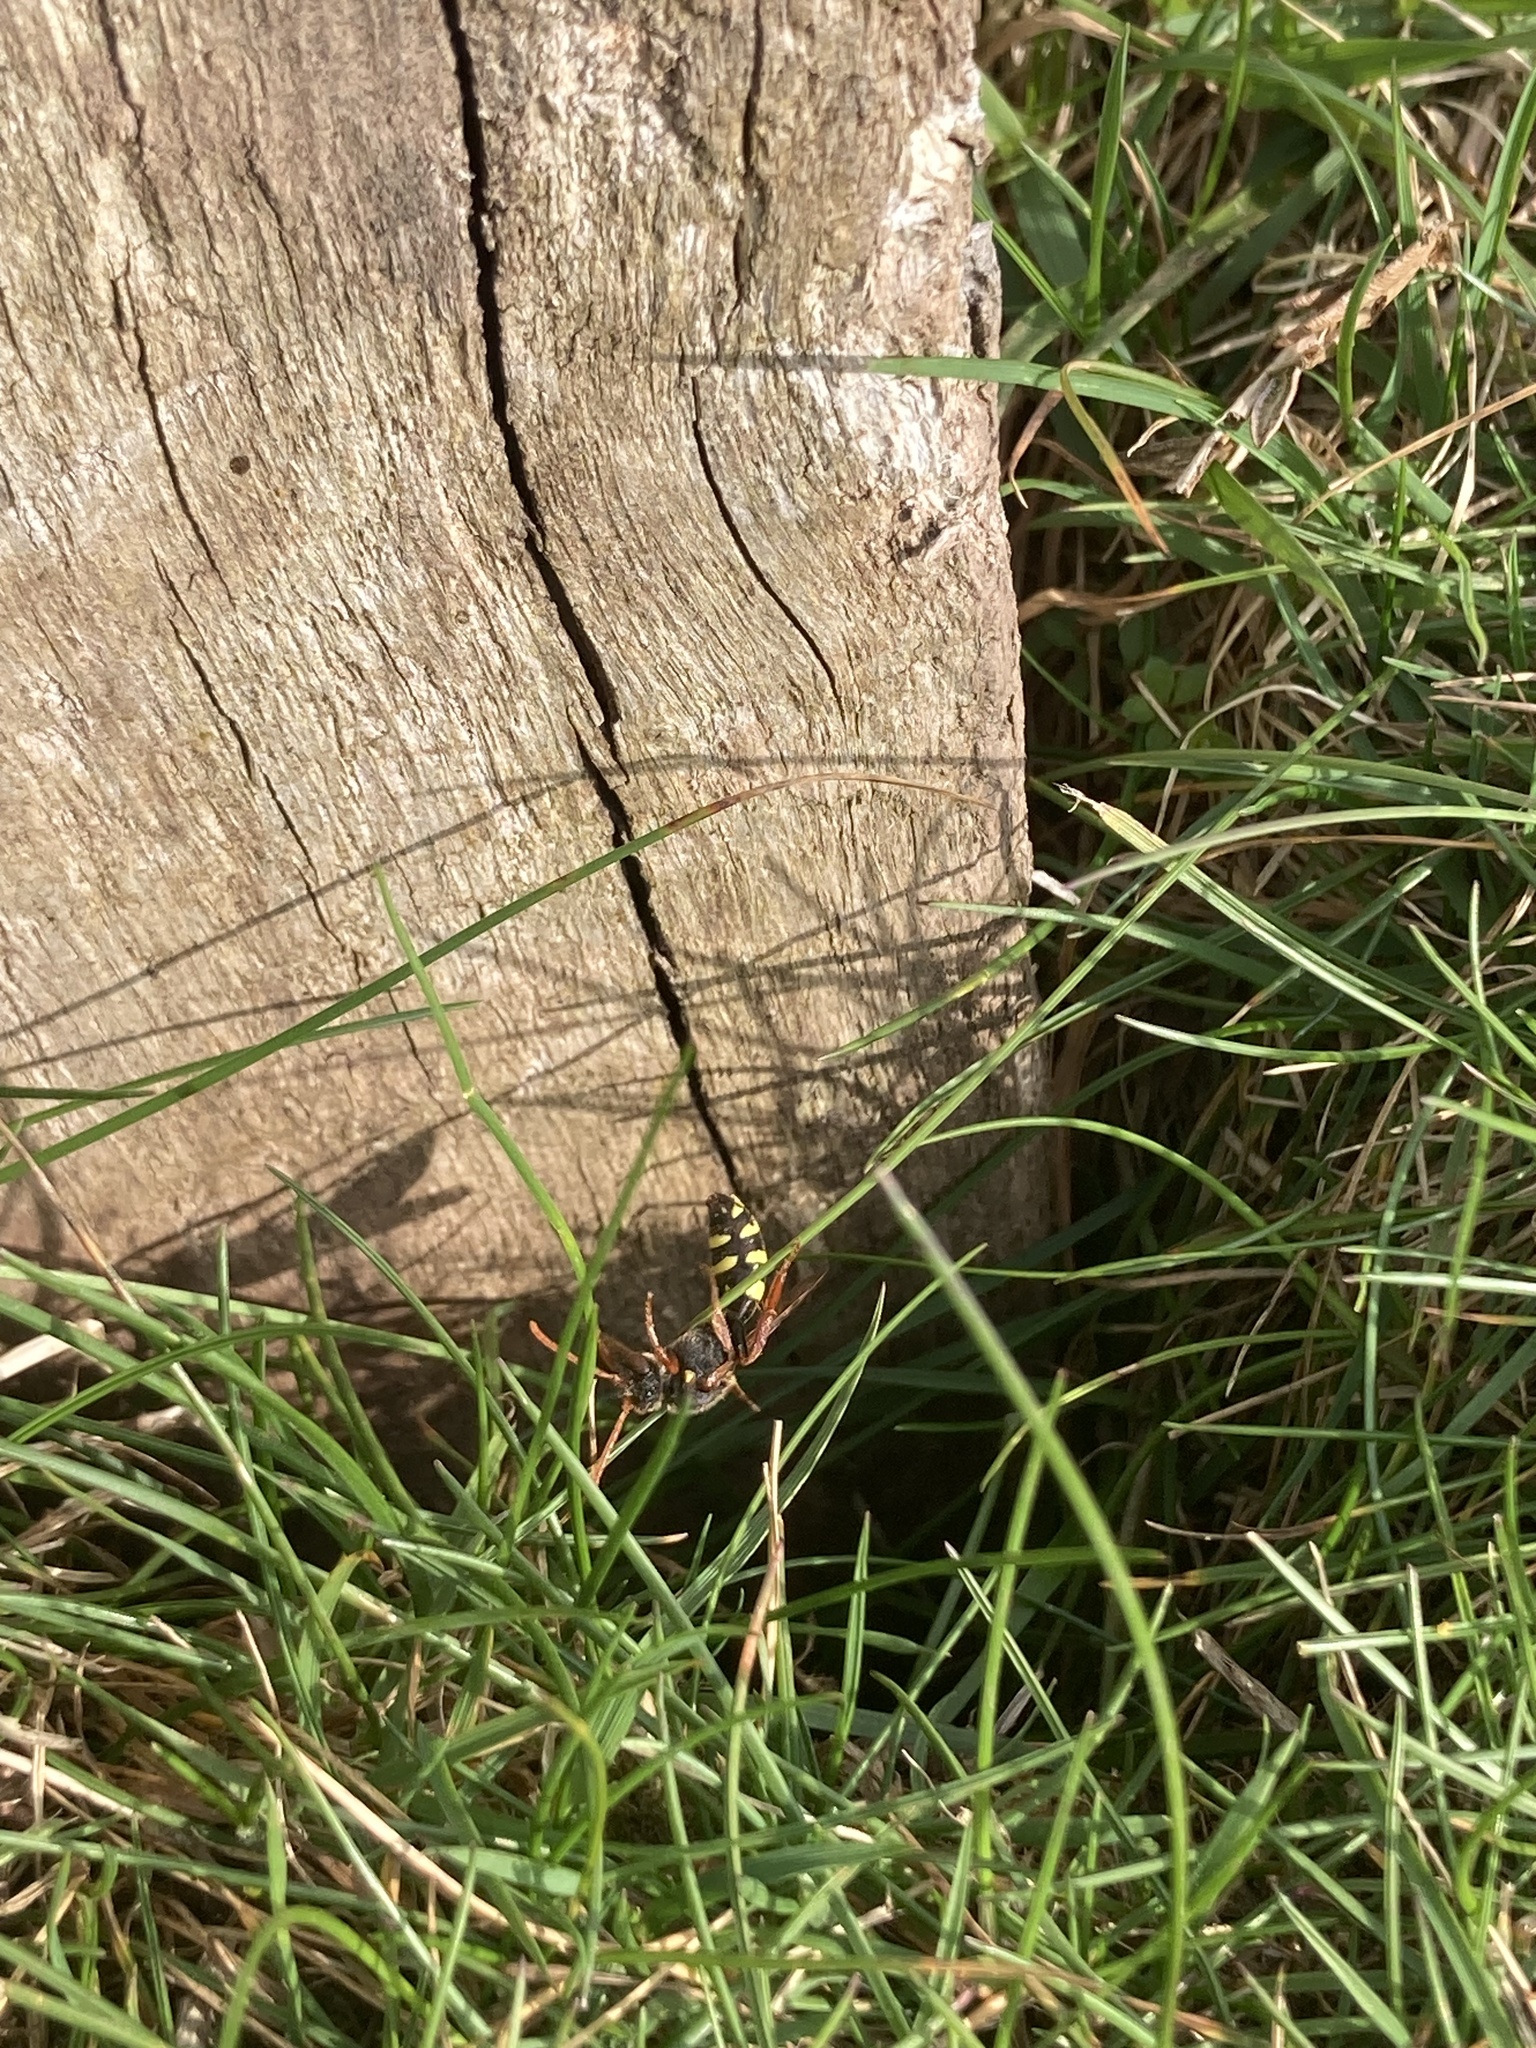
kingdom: Animalia
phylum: Arthropoda
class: Insecta
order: Hymenoptera
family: Apidae
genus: Nomada
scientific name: Nomada marshamella
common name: Marsham's nomad bee
